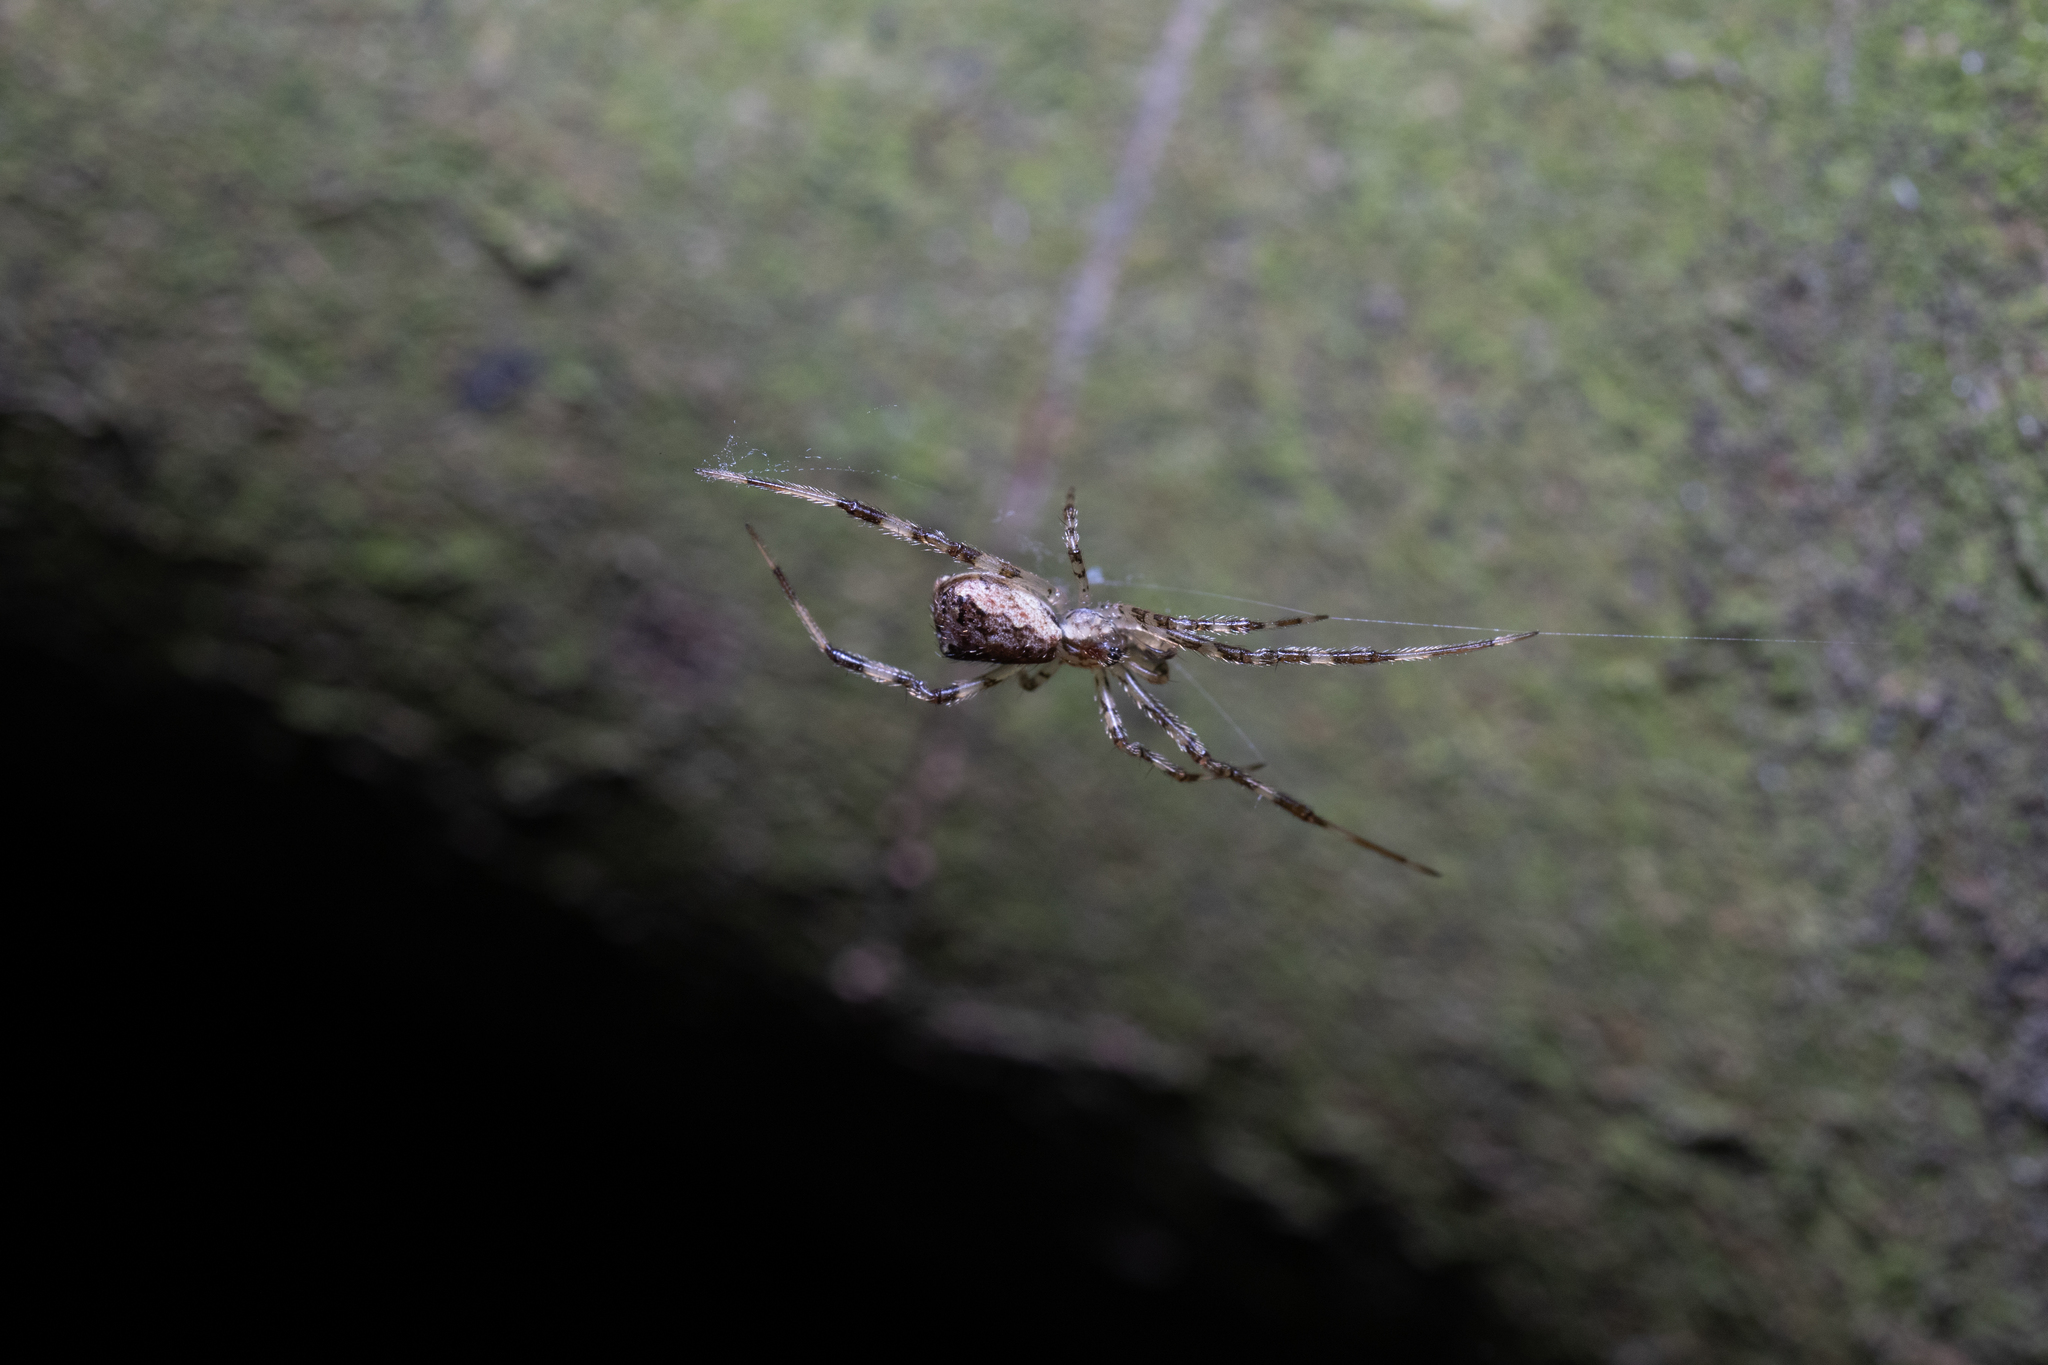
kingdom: Animalia
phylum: Arthropoda
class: Arachnida
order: Araneae
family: Theridiidae
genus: Episinus
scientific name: Episinus maculipes
